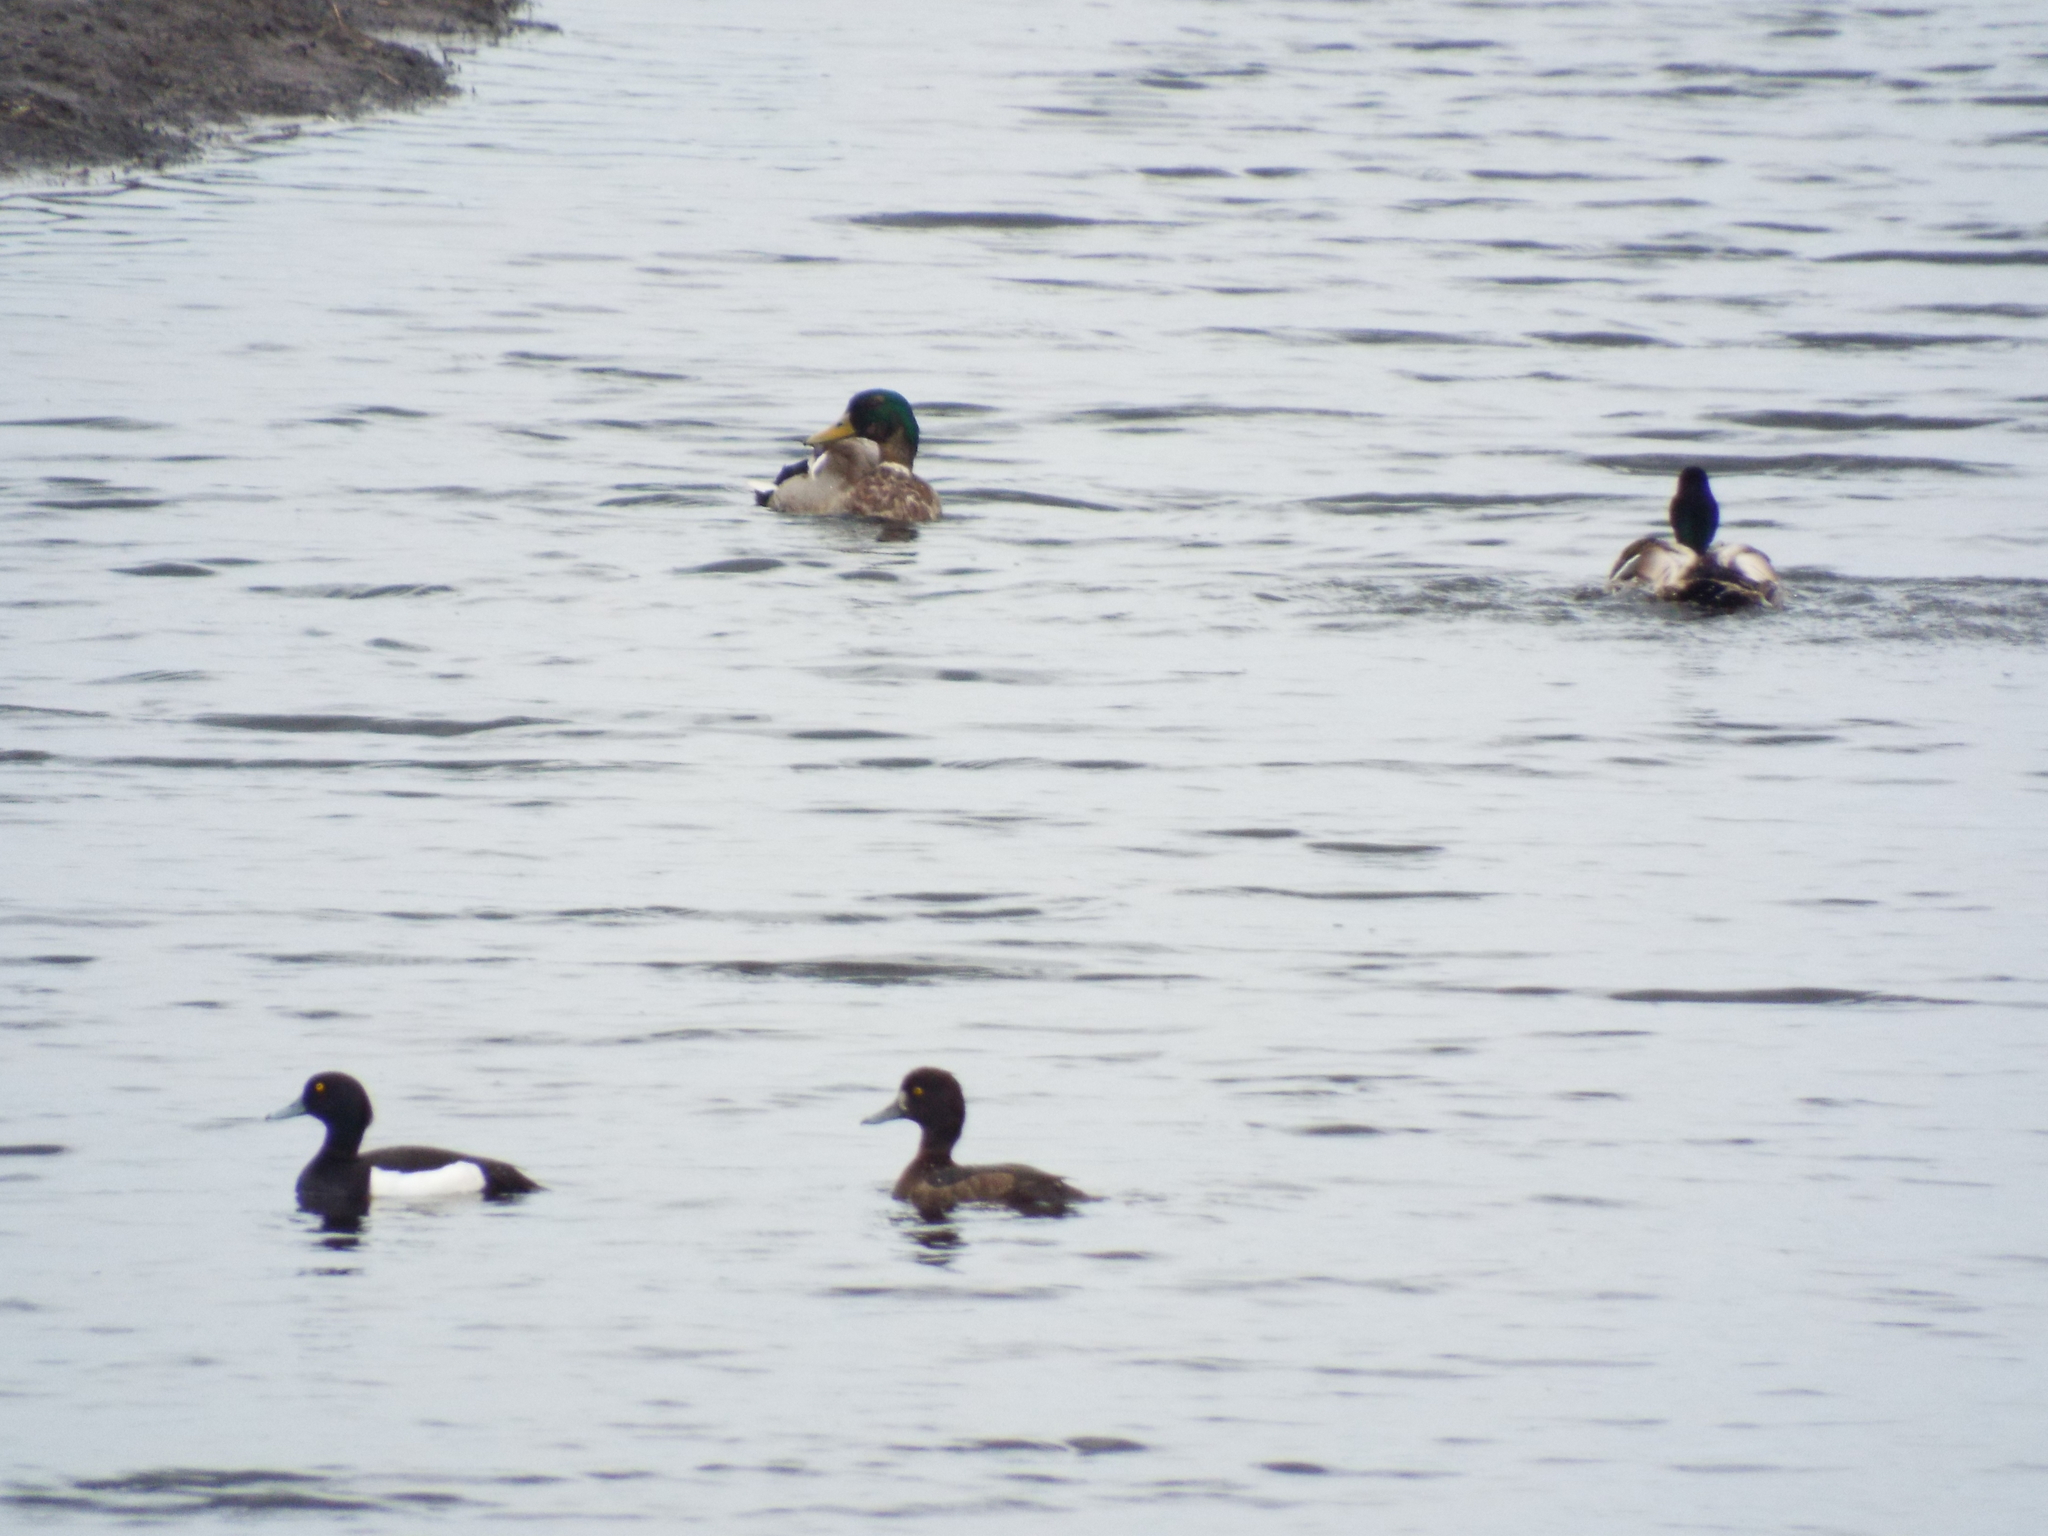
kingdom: Animalia
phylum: Chordata
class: Aves
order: Anseriformes
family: Anatidae
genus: Anas
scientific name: Anas platyrhynchos
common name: Mallard
